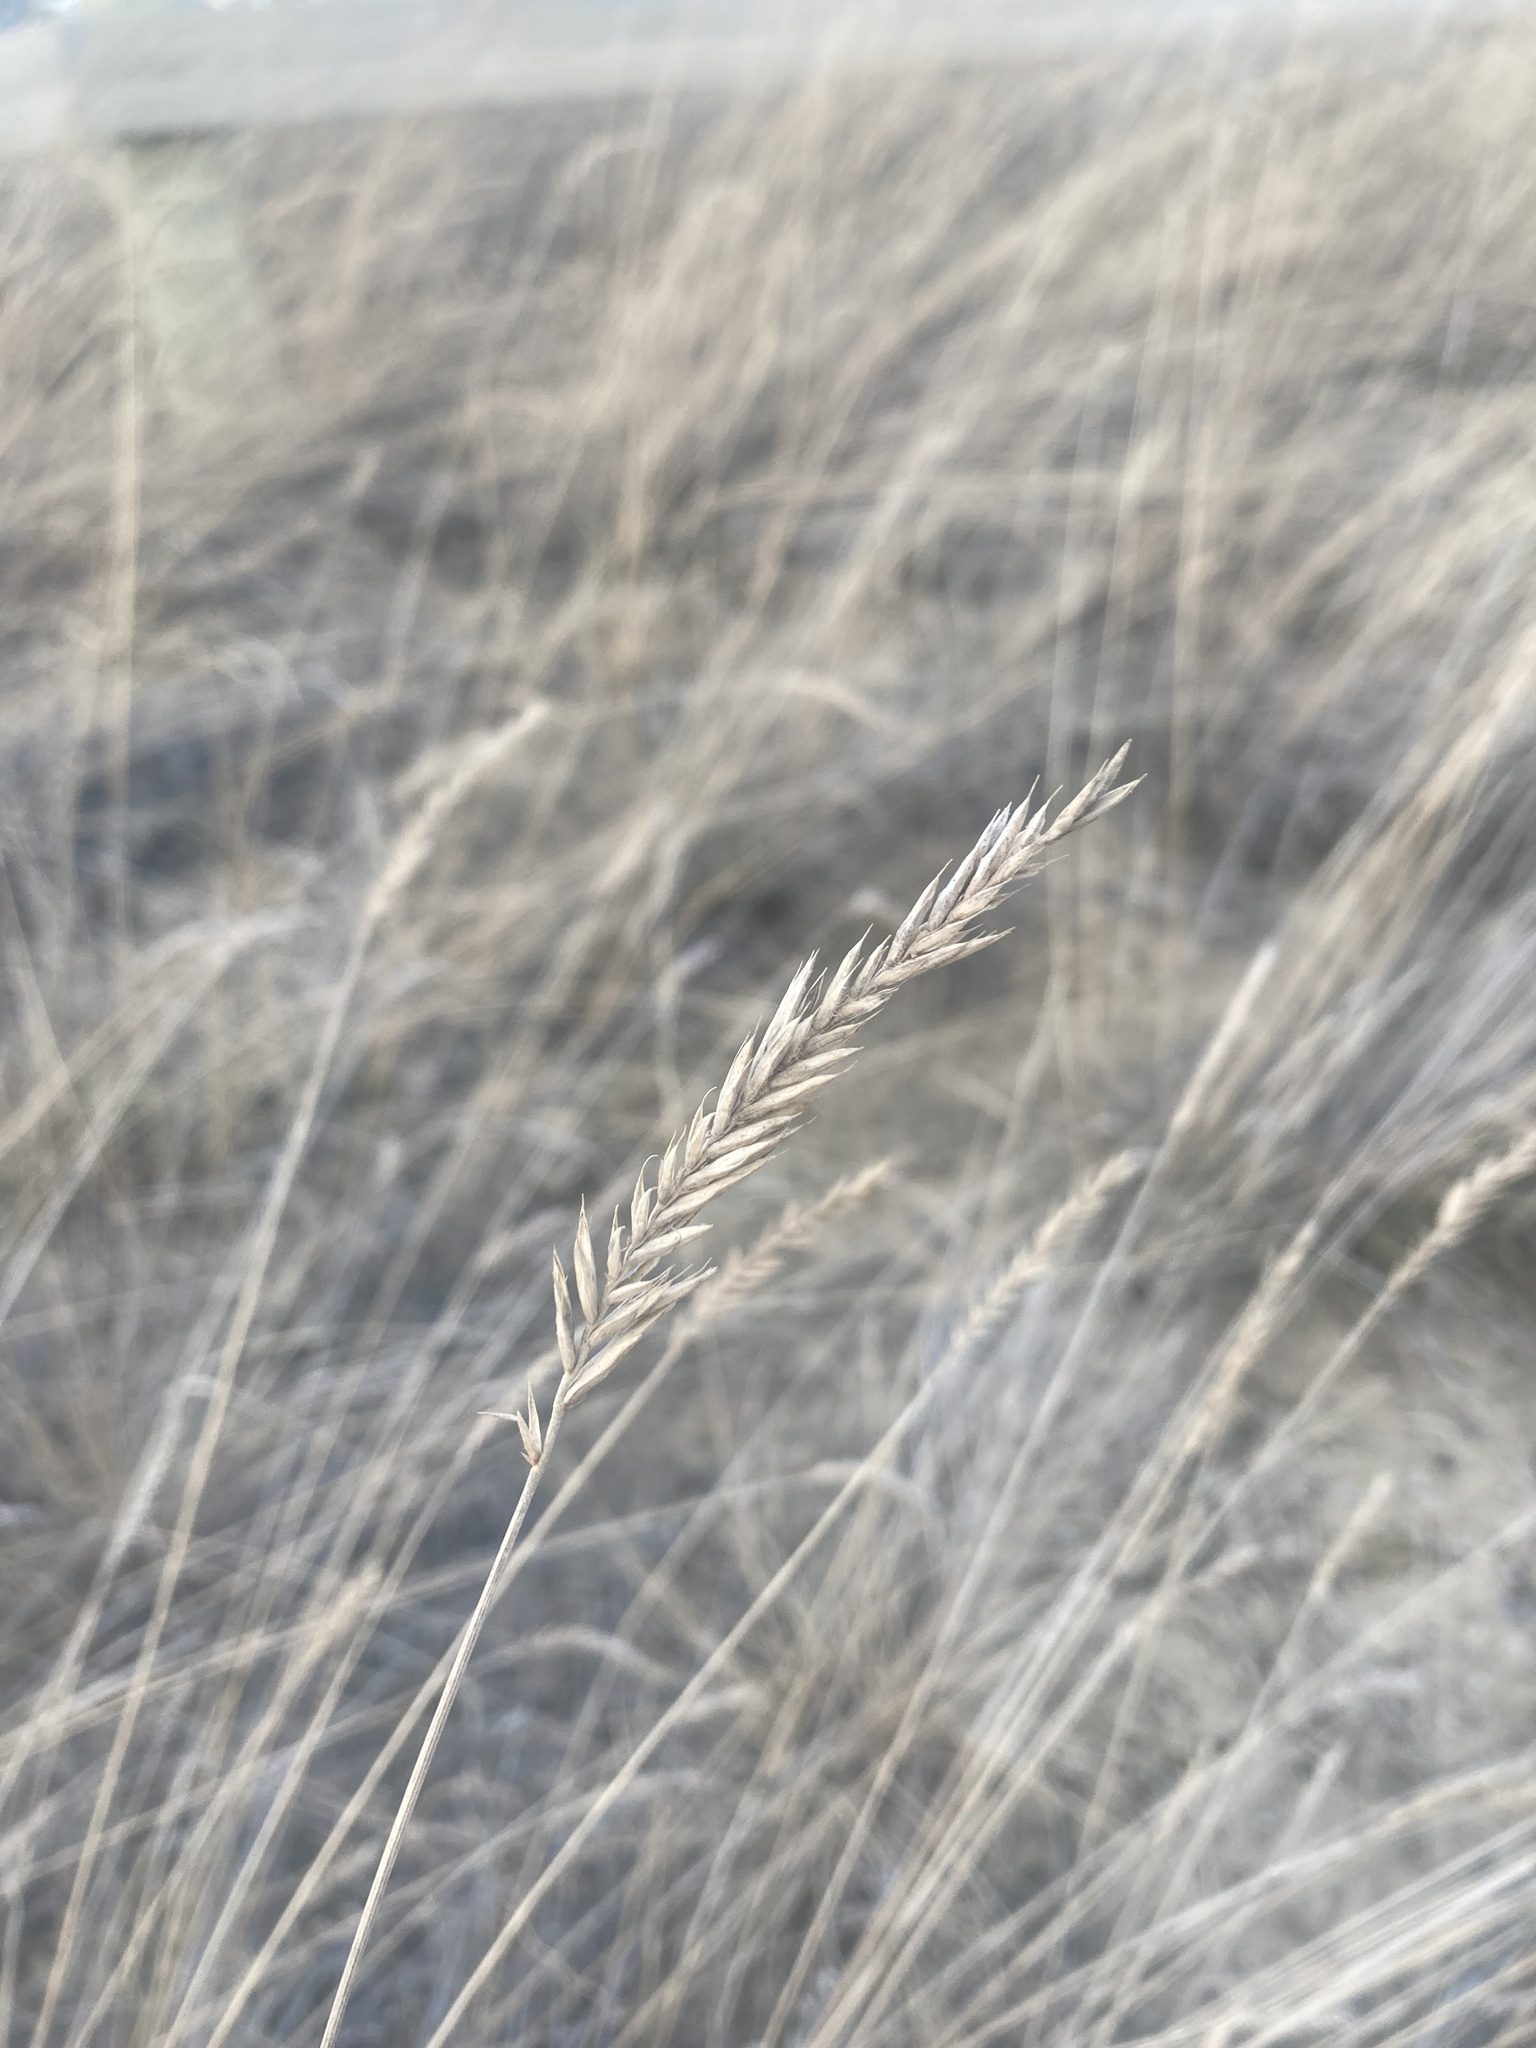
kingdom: Plantae
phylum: Tracheophyta
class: Liliopsida
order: Poales
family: Poaceae
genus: Agropyron
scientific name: Agropyron cristatum
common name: Crested wheatgrass
